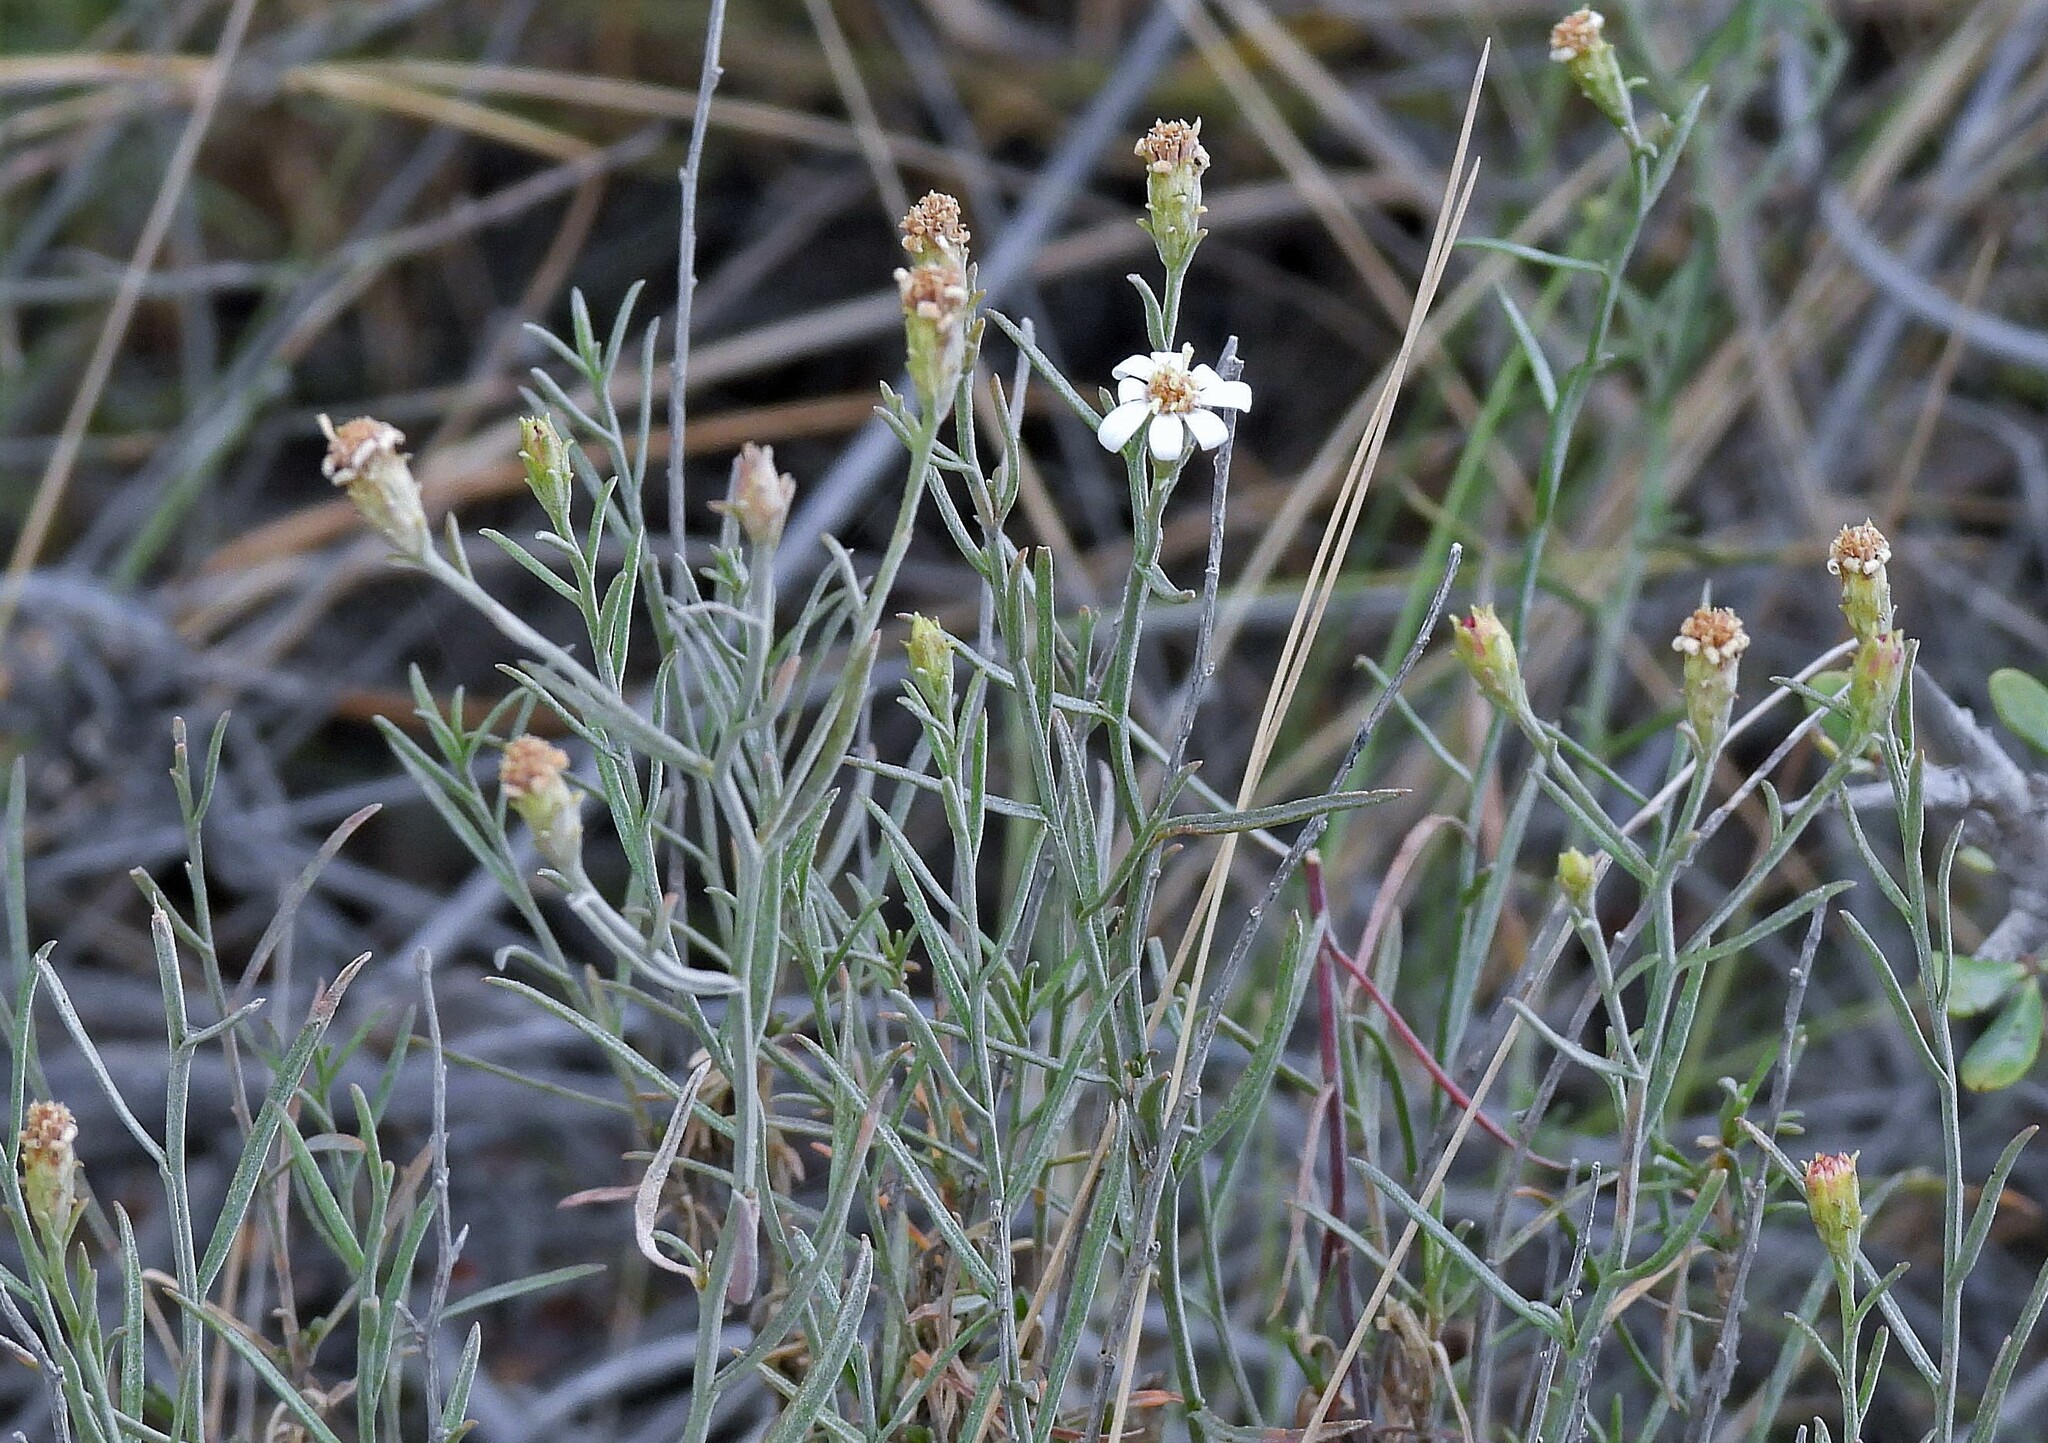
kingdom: Plantae
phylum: Tracheophyta
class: Magnoliopsida
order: Asterales
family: Asteraceae
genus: Gutierrezia
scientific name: Gutierrezia gilliesii
